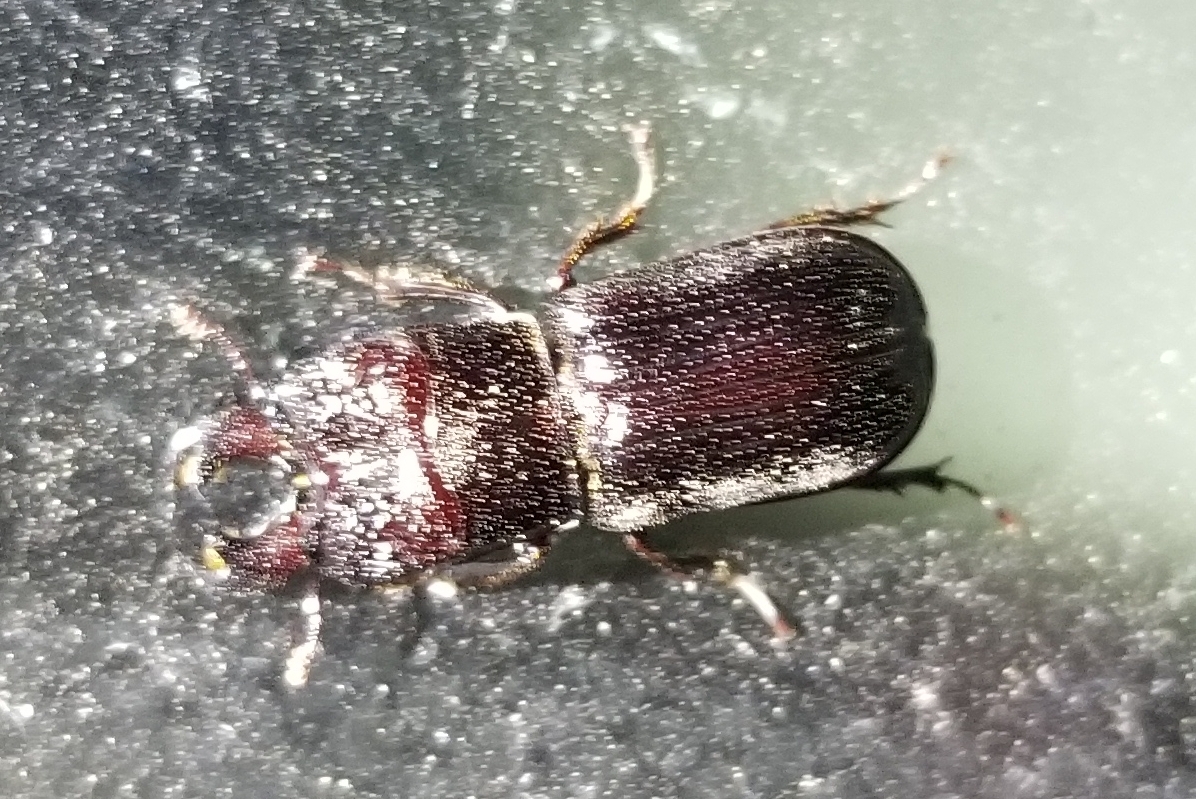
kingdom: Animalia
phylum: Arthropoda
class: Insecta
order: Coleoptera
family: Lucanidae
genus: Ceruchus
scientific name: Ceruchus piceus
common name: Red-rot decay stag beetle
